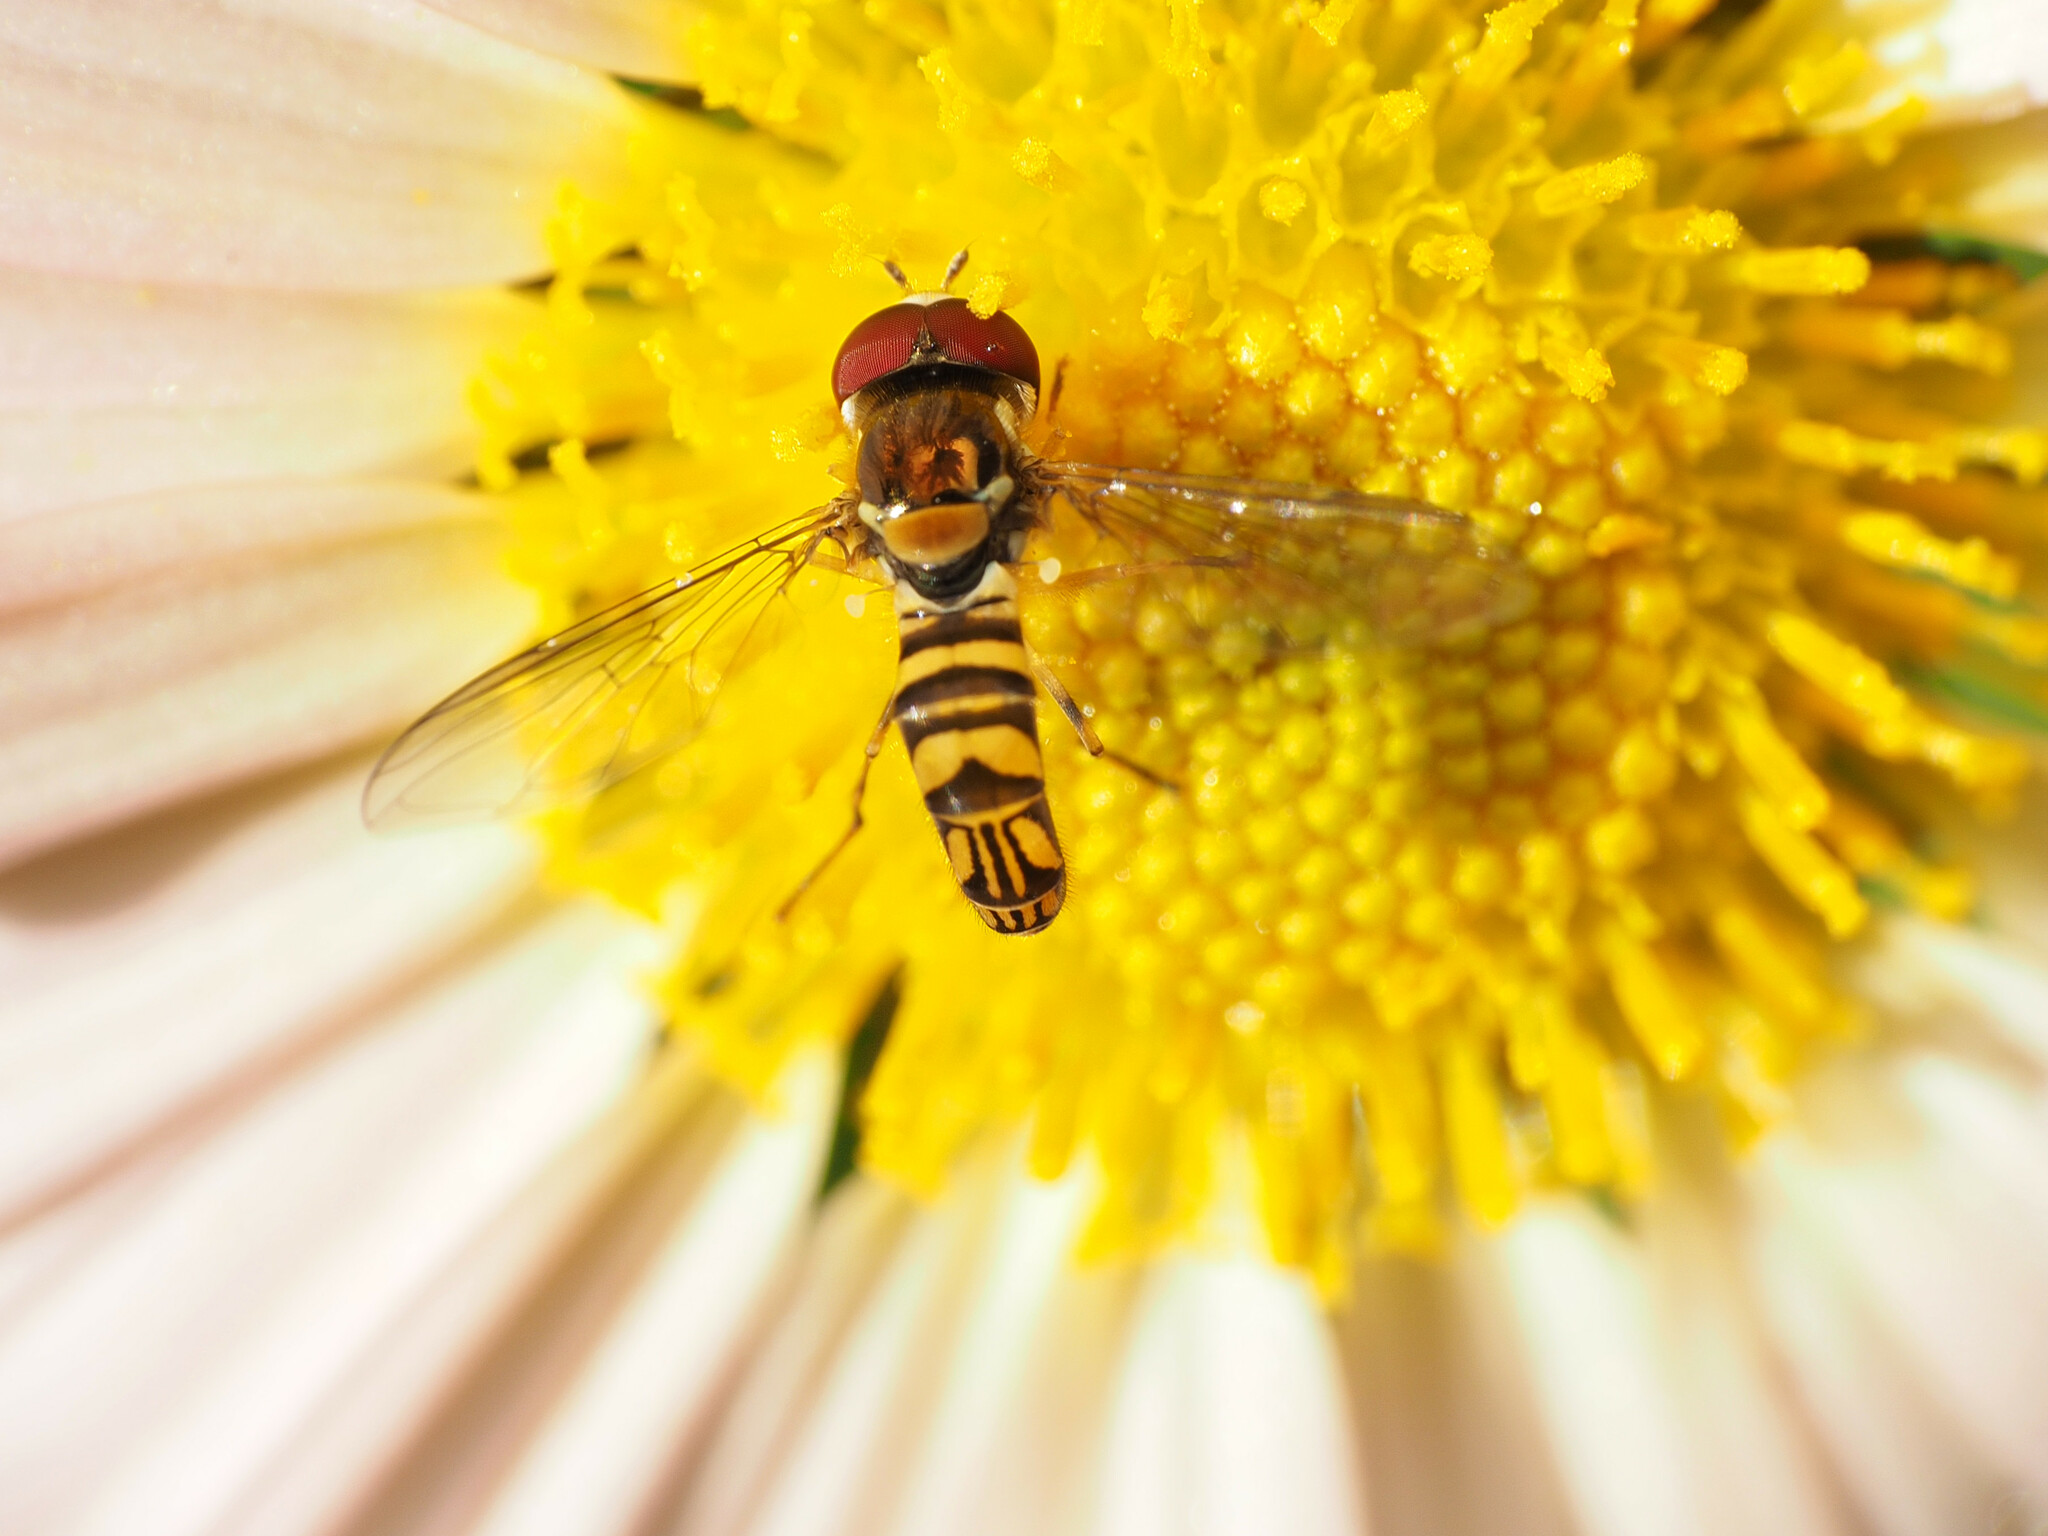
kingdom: Animalia
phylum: Arthropoda
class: Insecta
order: Diptera
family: Syrphidae
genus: Allograpta
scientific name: Allograpta obliqua
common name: Common oblique syrphid
